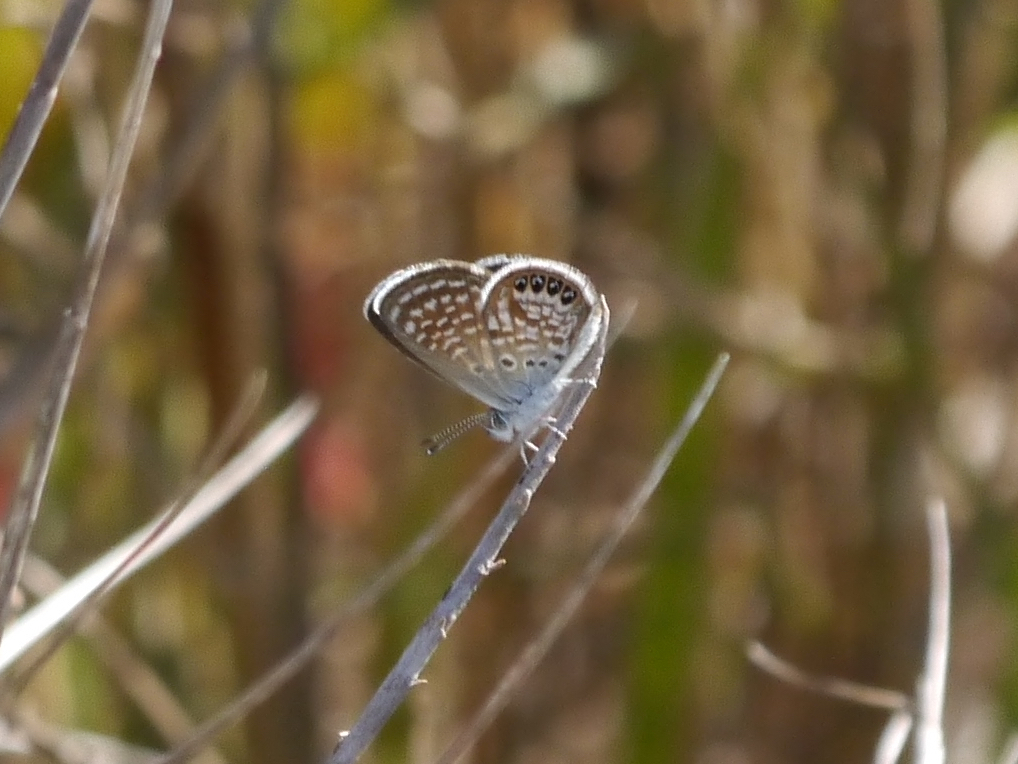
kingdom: Animalia
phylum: Arthropoda
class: Insecta
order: Lepidoptera
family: Lycaenidae
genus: Brephidium
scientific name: Brephidium exilis
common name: Pygmy blue
